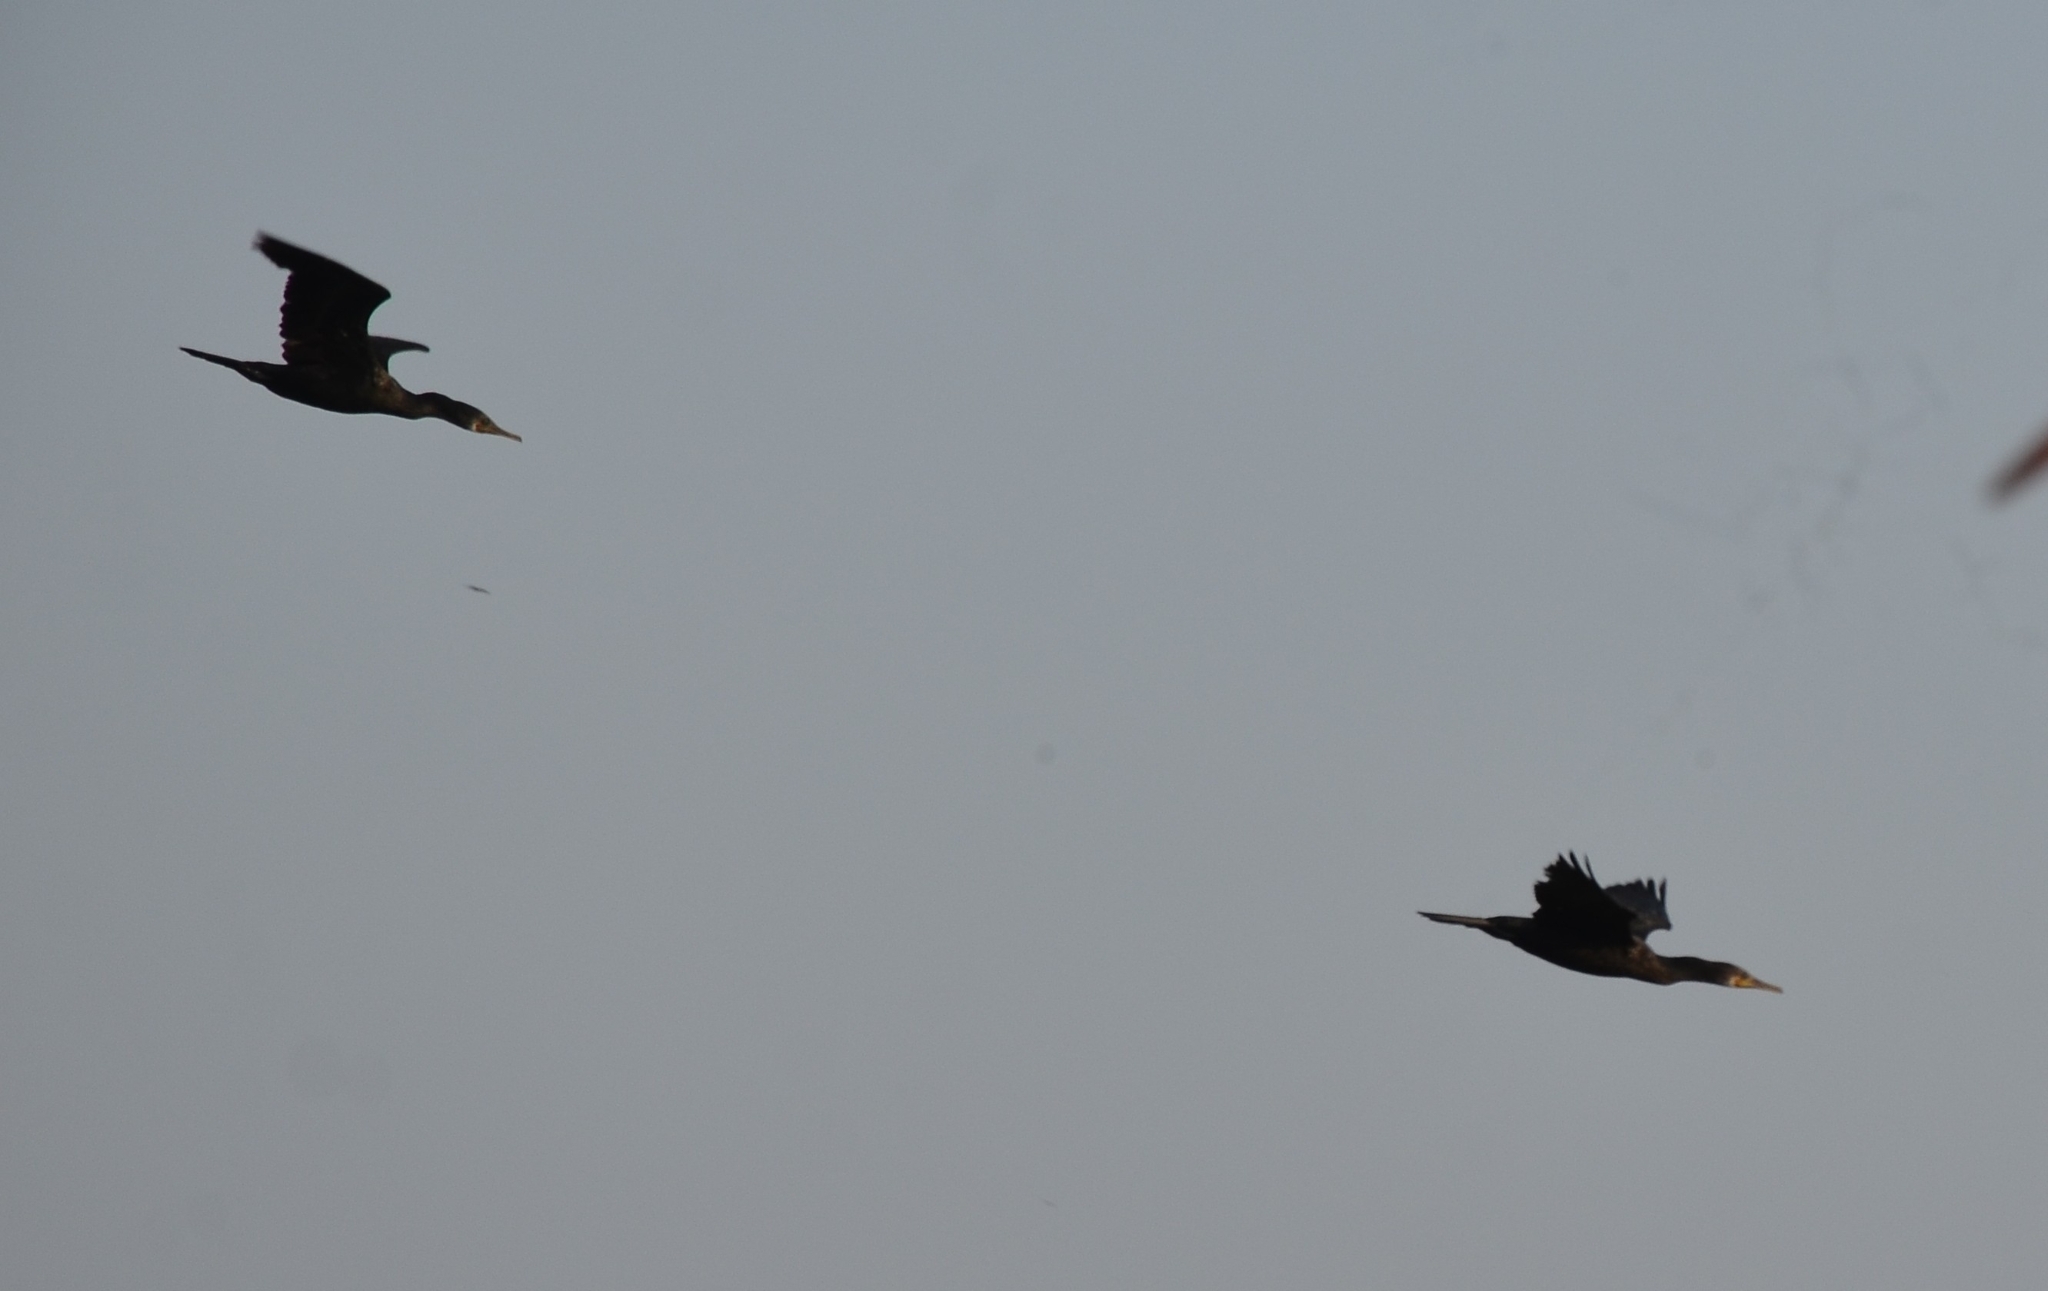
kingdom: Animalia
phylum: Chordata
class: Aves
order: Suliformes
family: Phalacrocoracidae
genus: Phalacrocorax
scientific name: Phalacrocorax fuscicollis
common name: Indian cormorant
